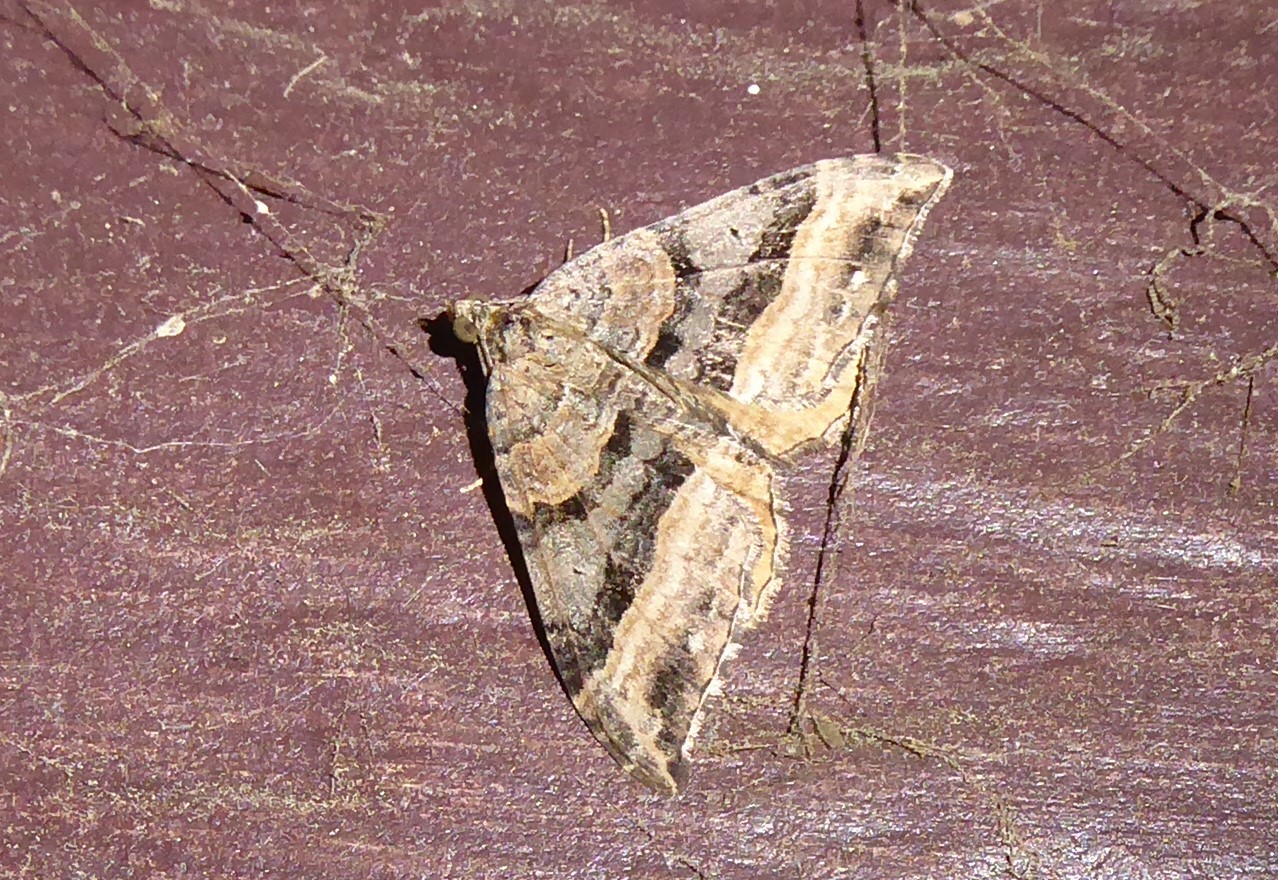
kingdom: Animalia
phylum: Arthropoda
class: Insecta
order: Lepidoptera
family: Geometridae
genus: Hydriomena
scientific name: Hydriomena deltoidata
